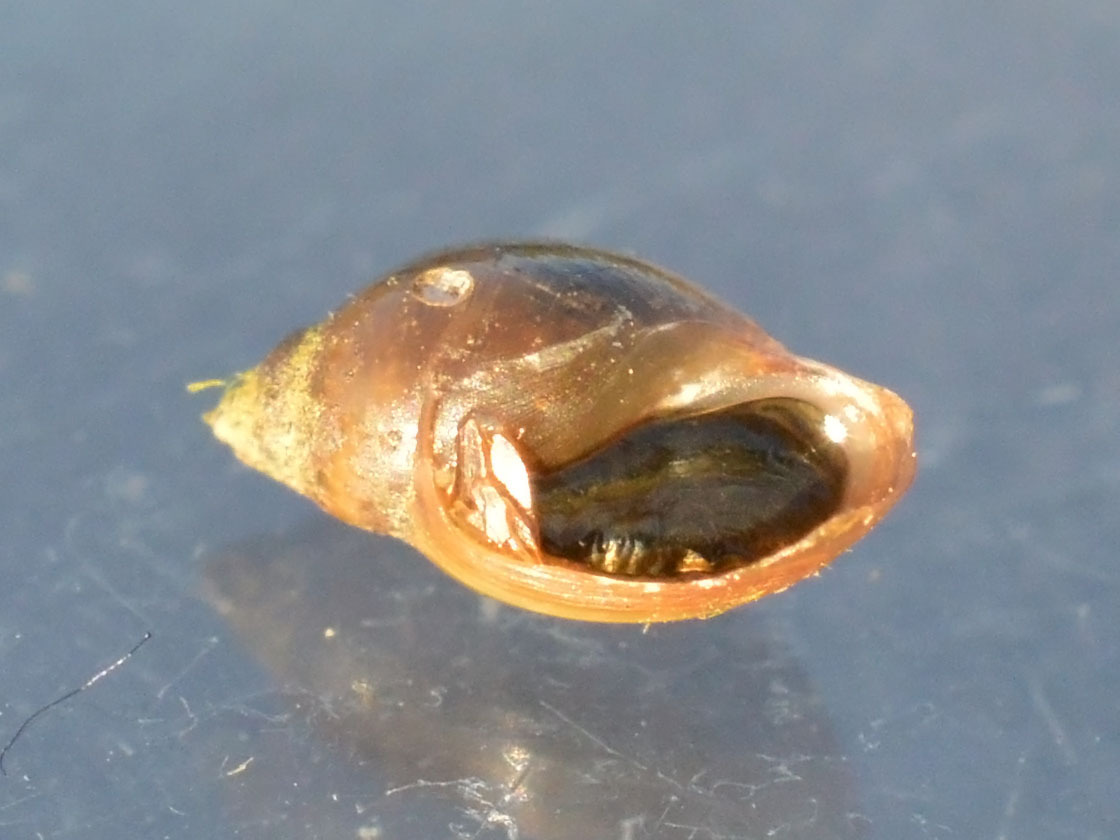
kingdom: Animalia
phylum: Mollusca
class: Gastropoda
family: Physidae
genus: Physella
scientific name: Physella acuta
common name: European physa
